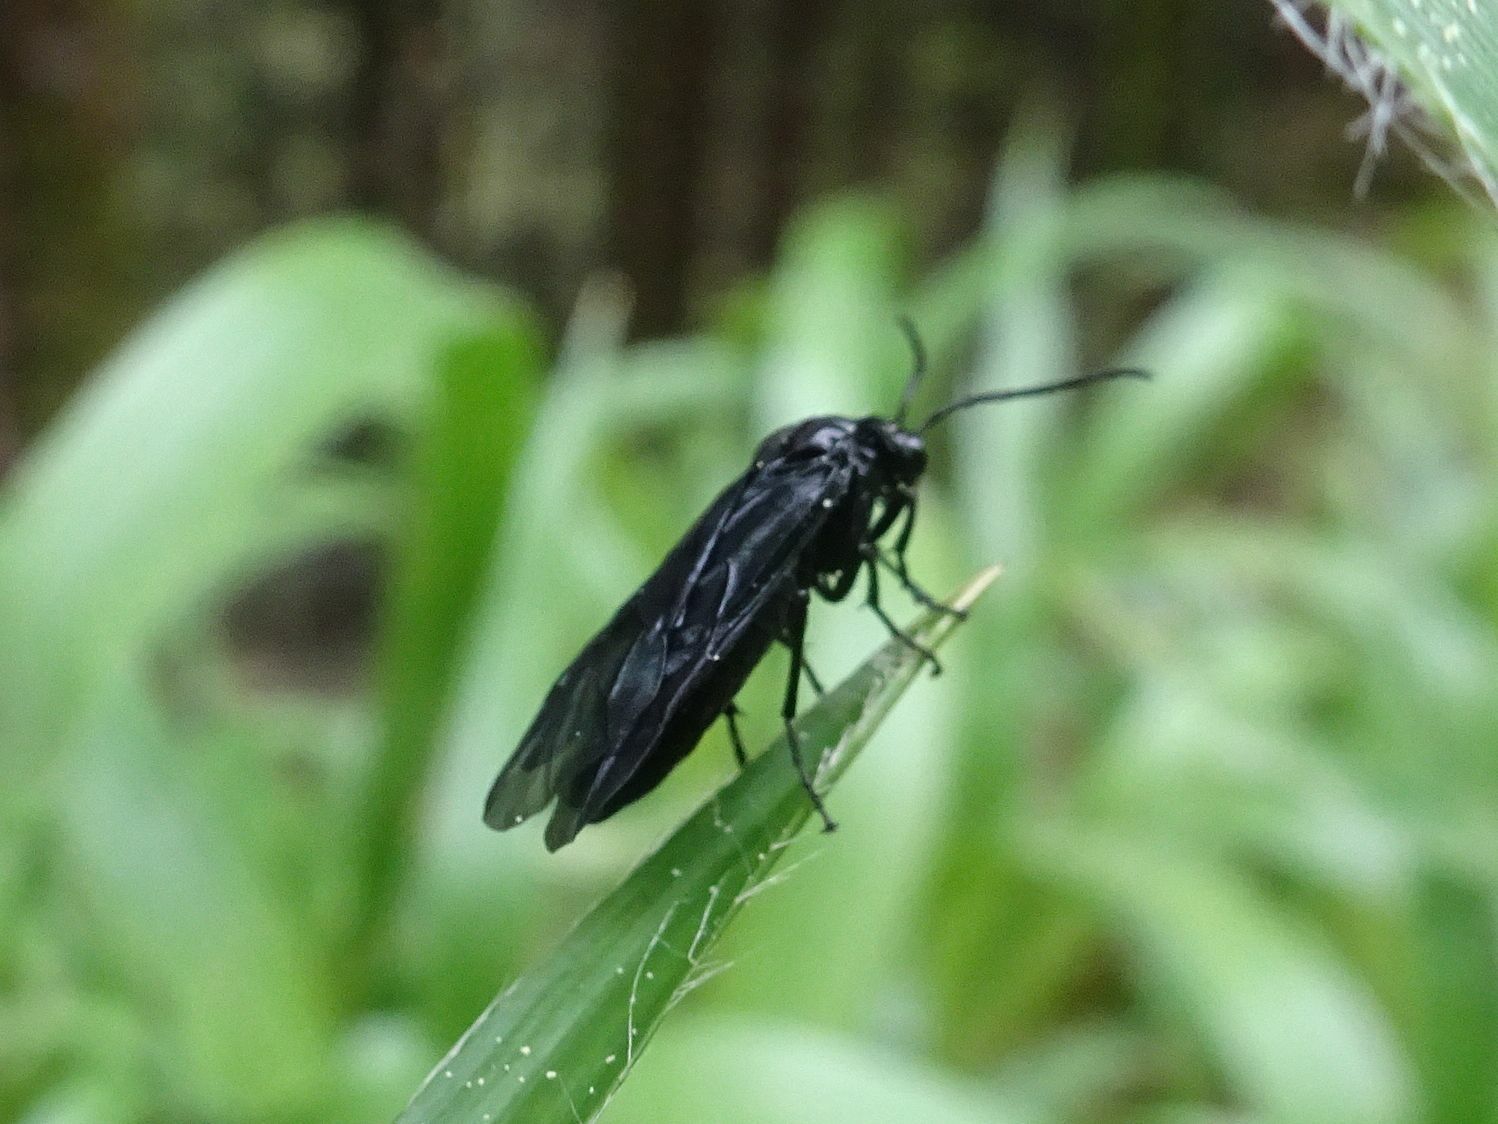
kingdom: Animalia
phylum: Arthropoda
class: Insecta
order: Hymenoptera
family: Tenthredinidae
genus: Phymatocera
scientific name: Phymatocera aterrima
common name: Solomon's-seal sawfly
